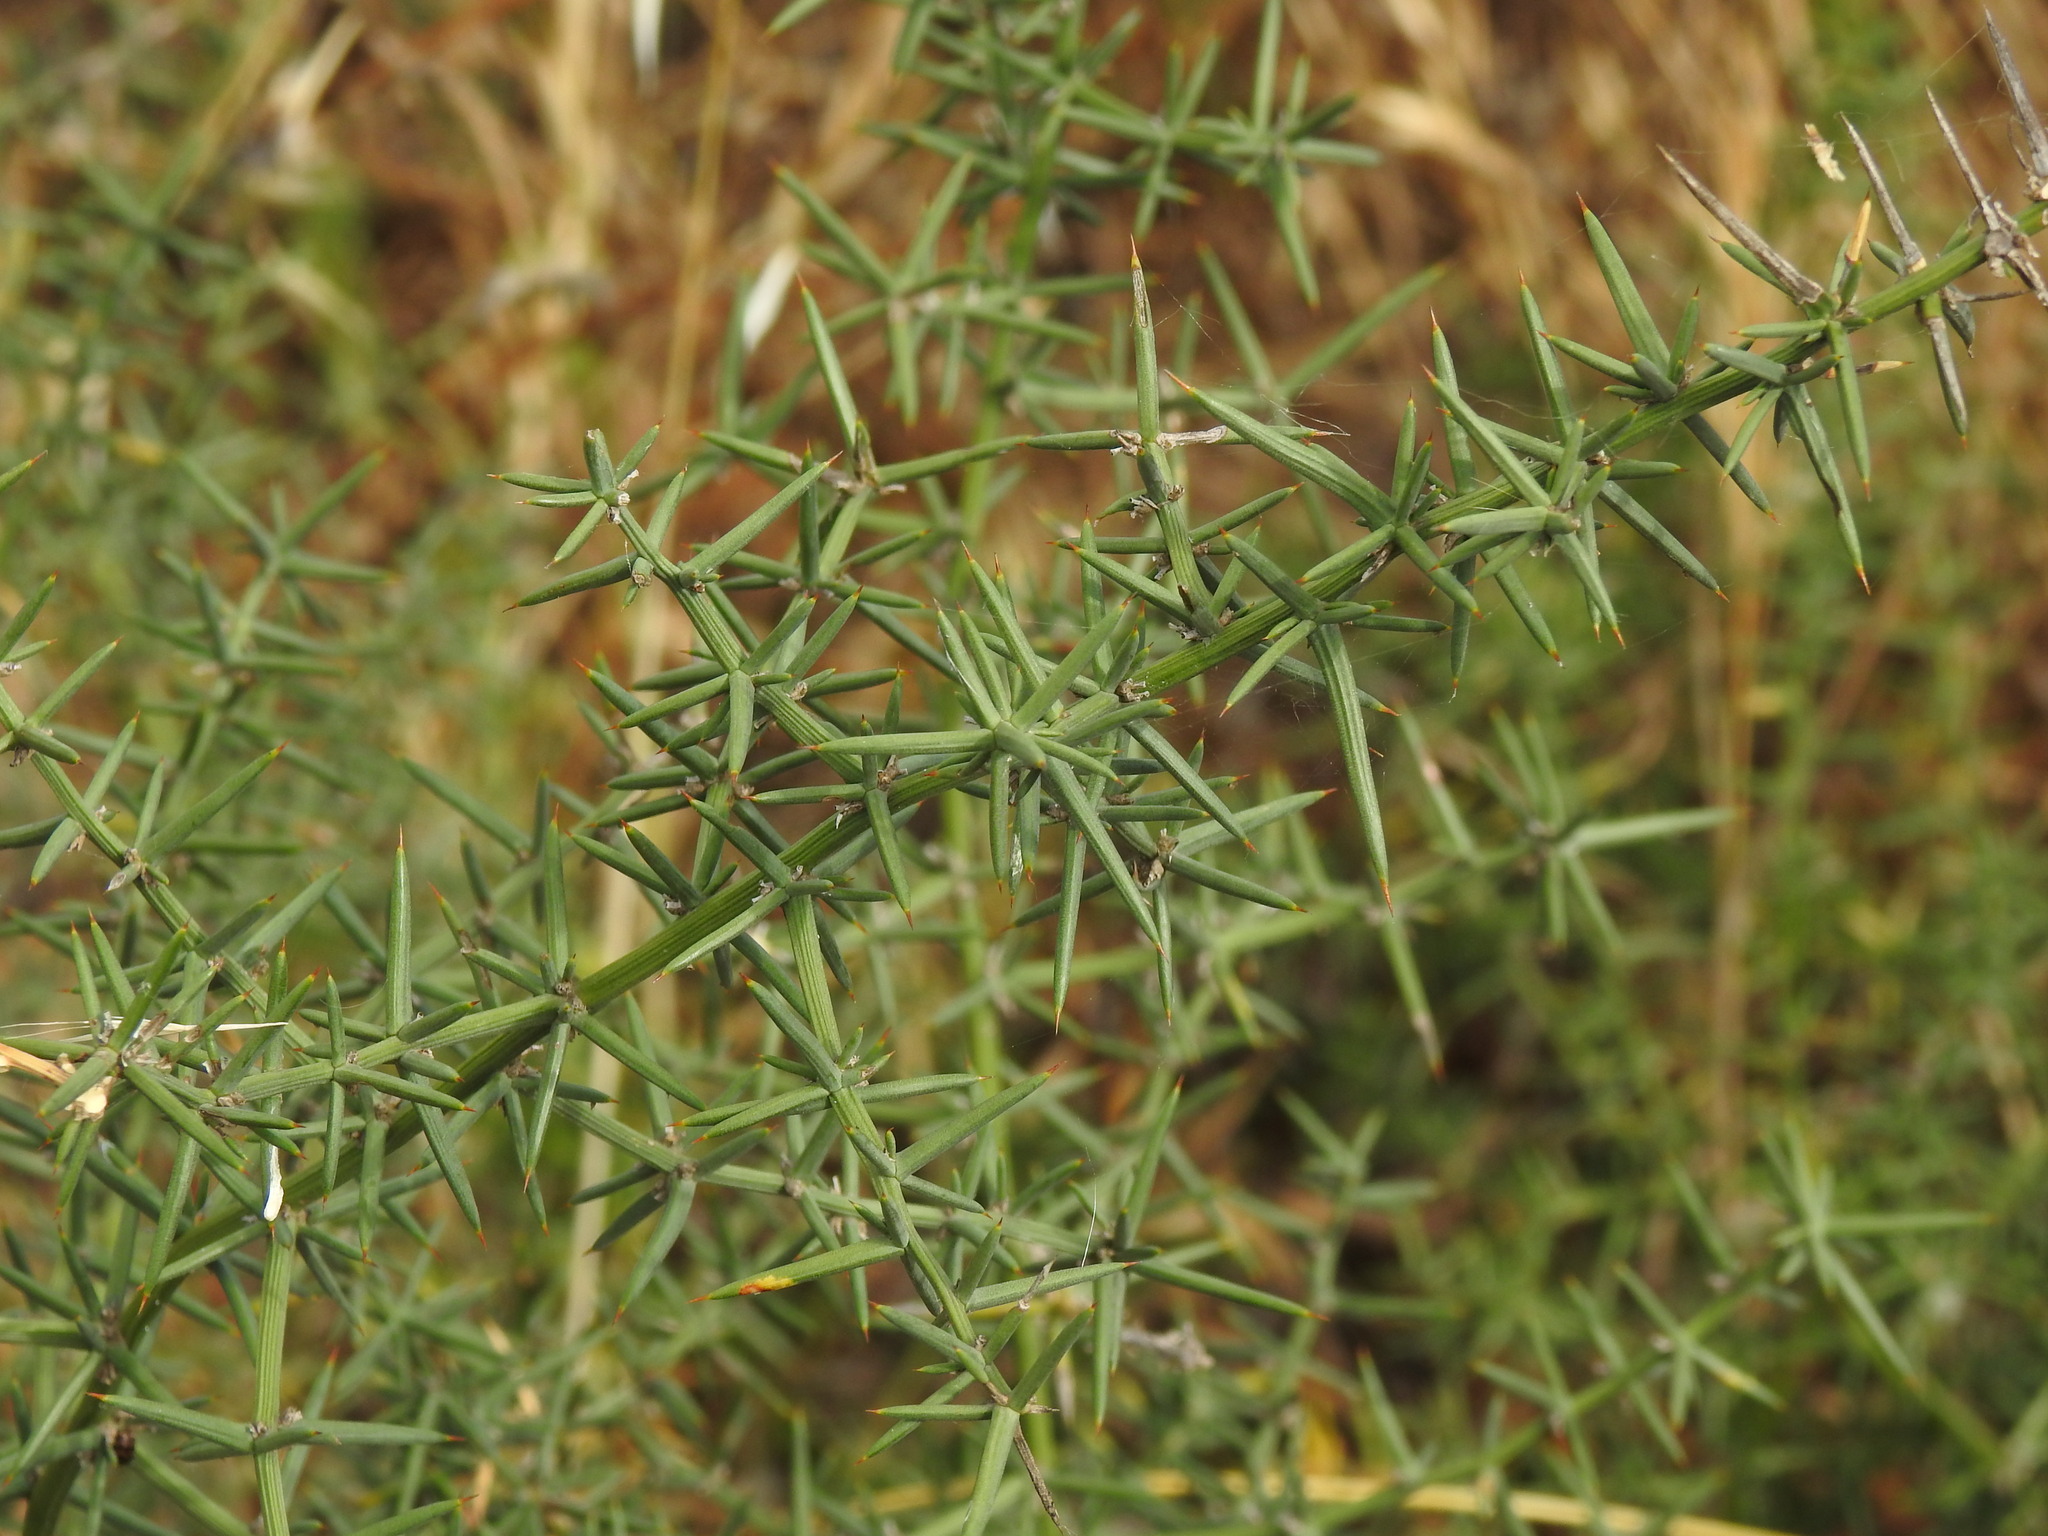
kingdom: Plantae
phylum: Tracheophyta
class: Liliopsida
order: Asparagales
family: Asparagaceae
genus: Asparagus
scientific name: Asparagus aphyllus
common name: Mediterranean asparagus
